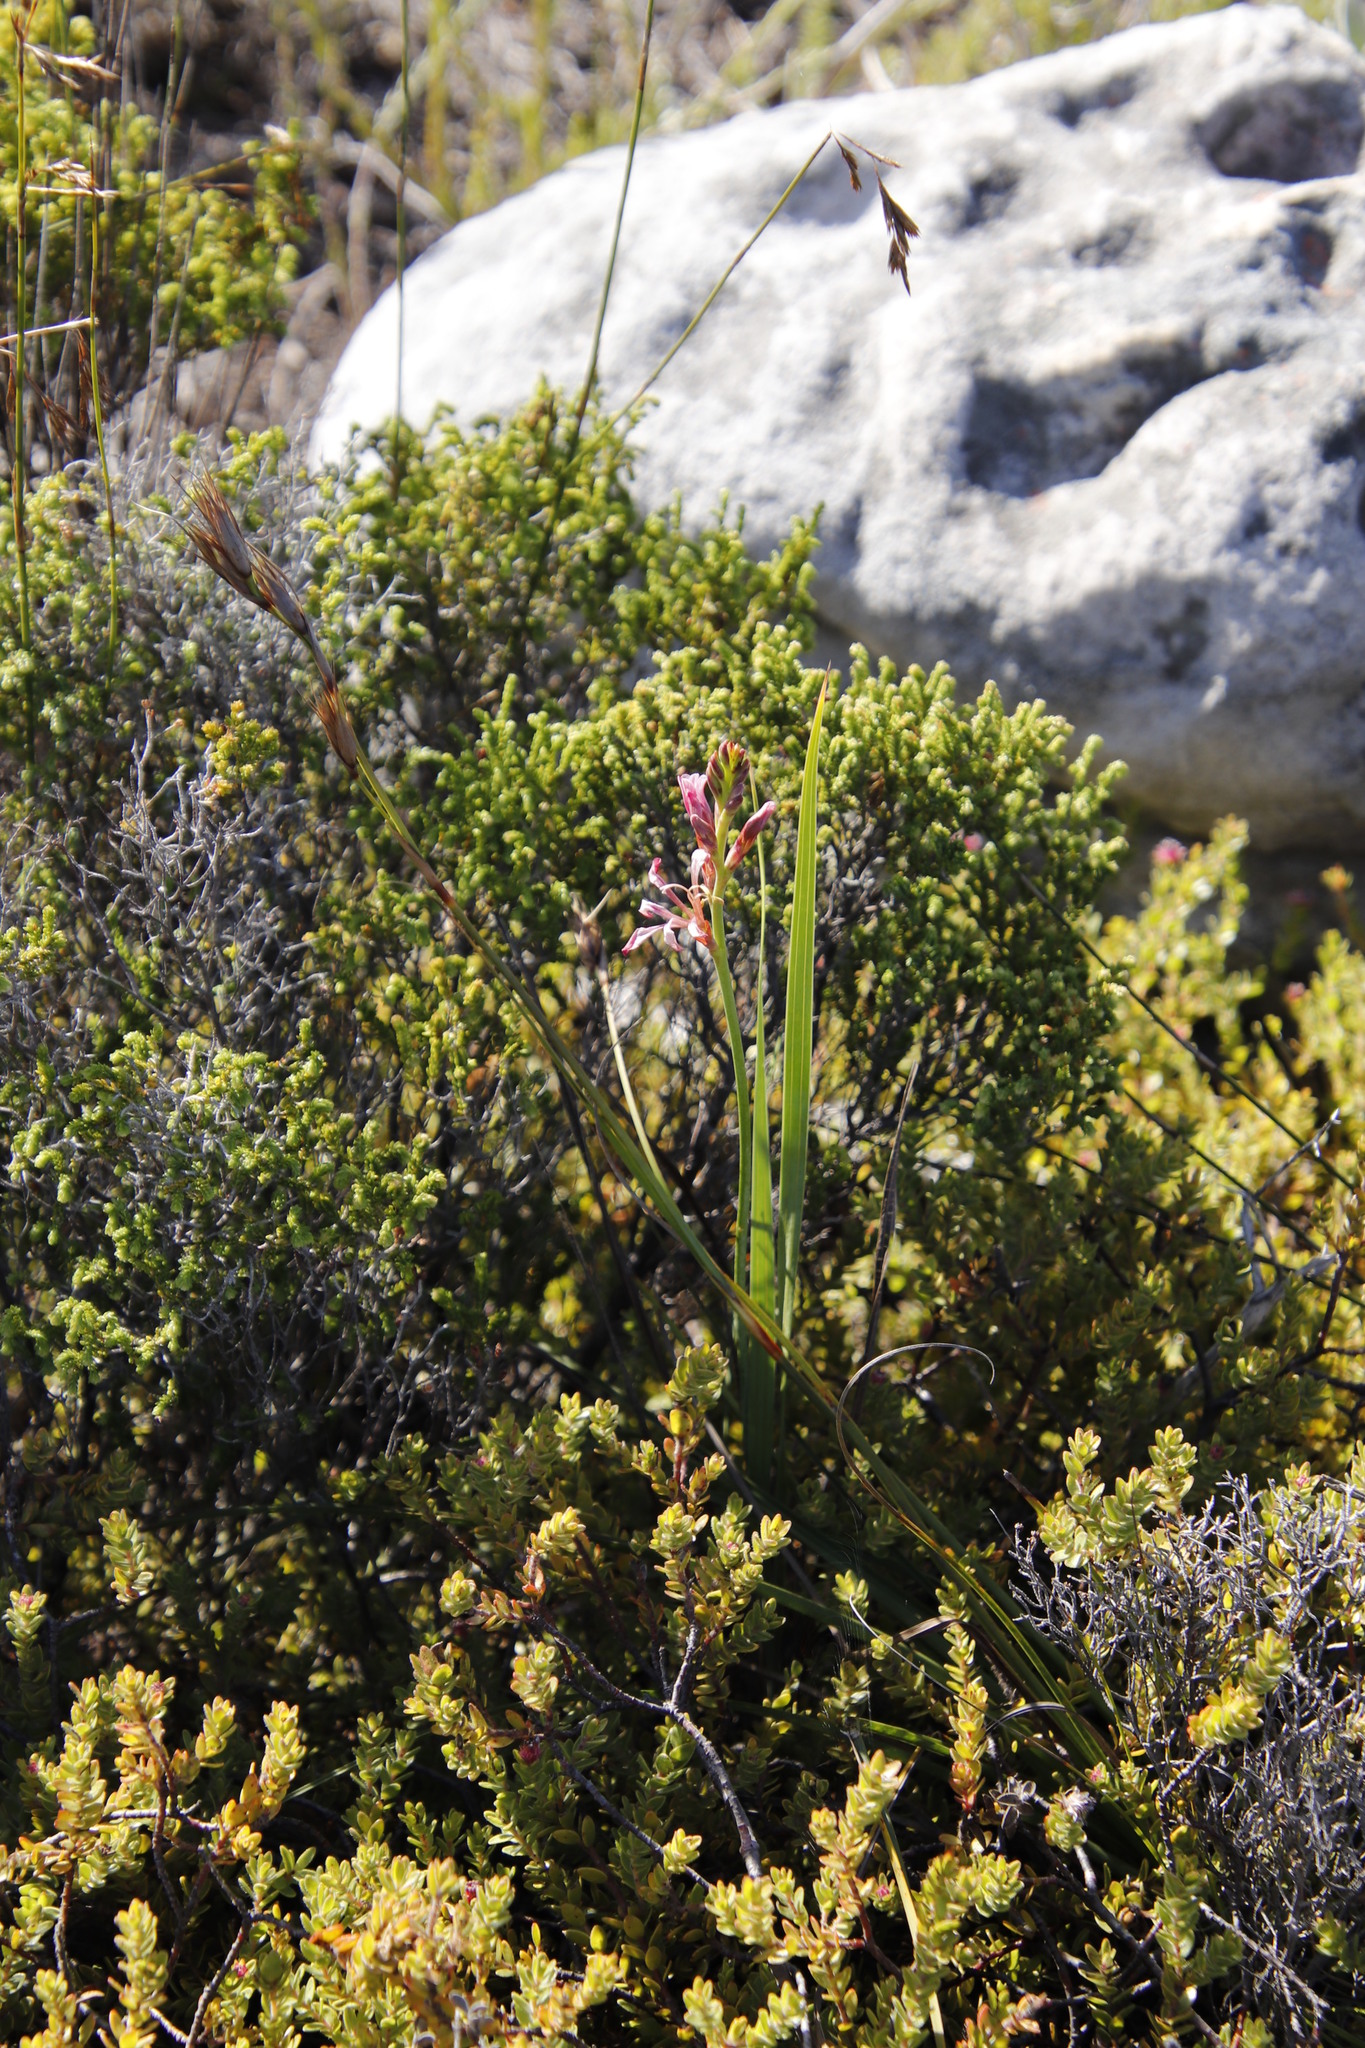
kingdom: Plantae
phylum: Tracheophyta
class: Liliopsida
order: Asparagales
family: Iridaceae
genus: Tritoniopsis
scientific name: Tritoniopsis dodii
